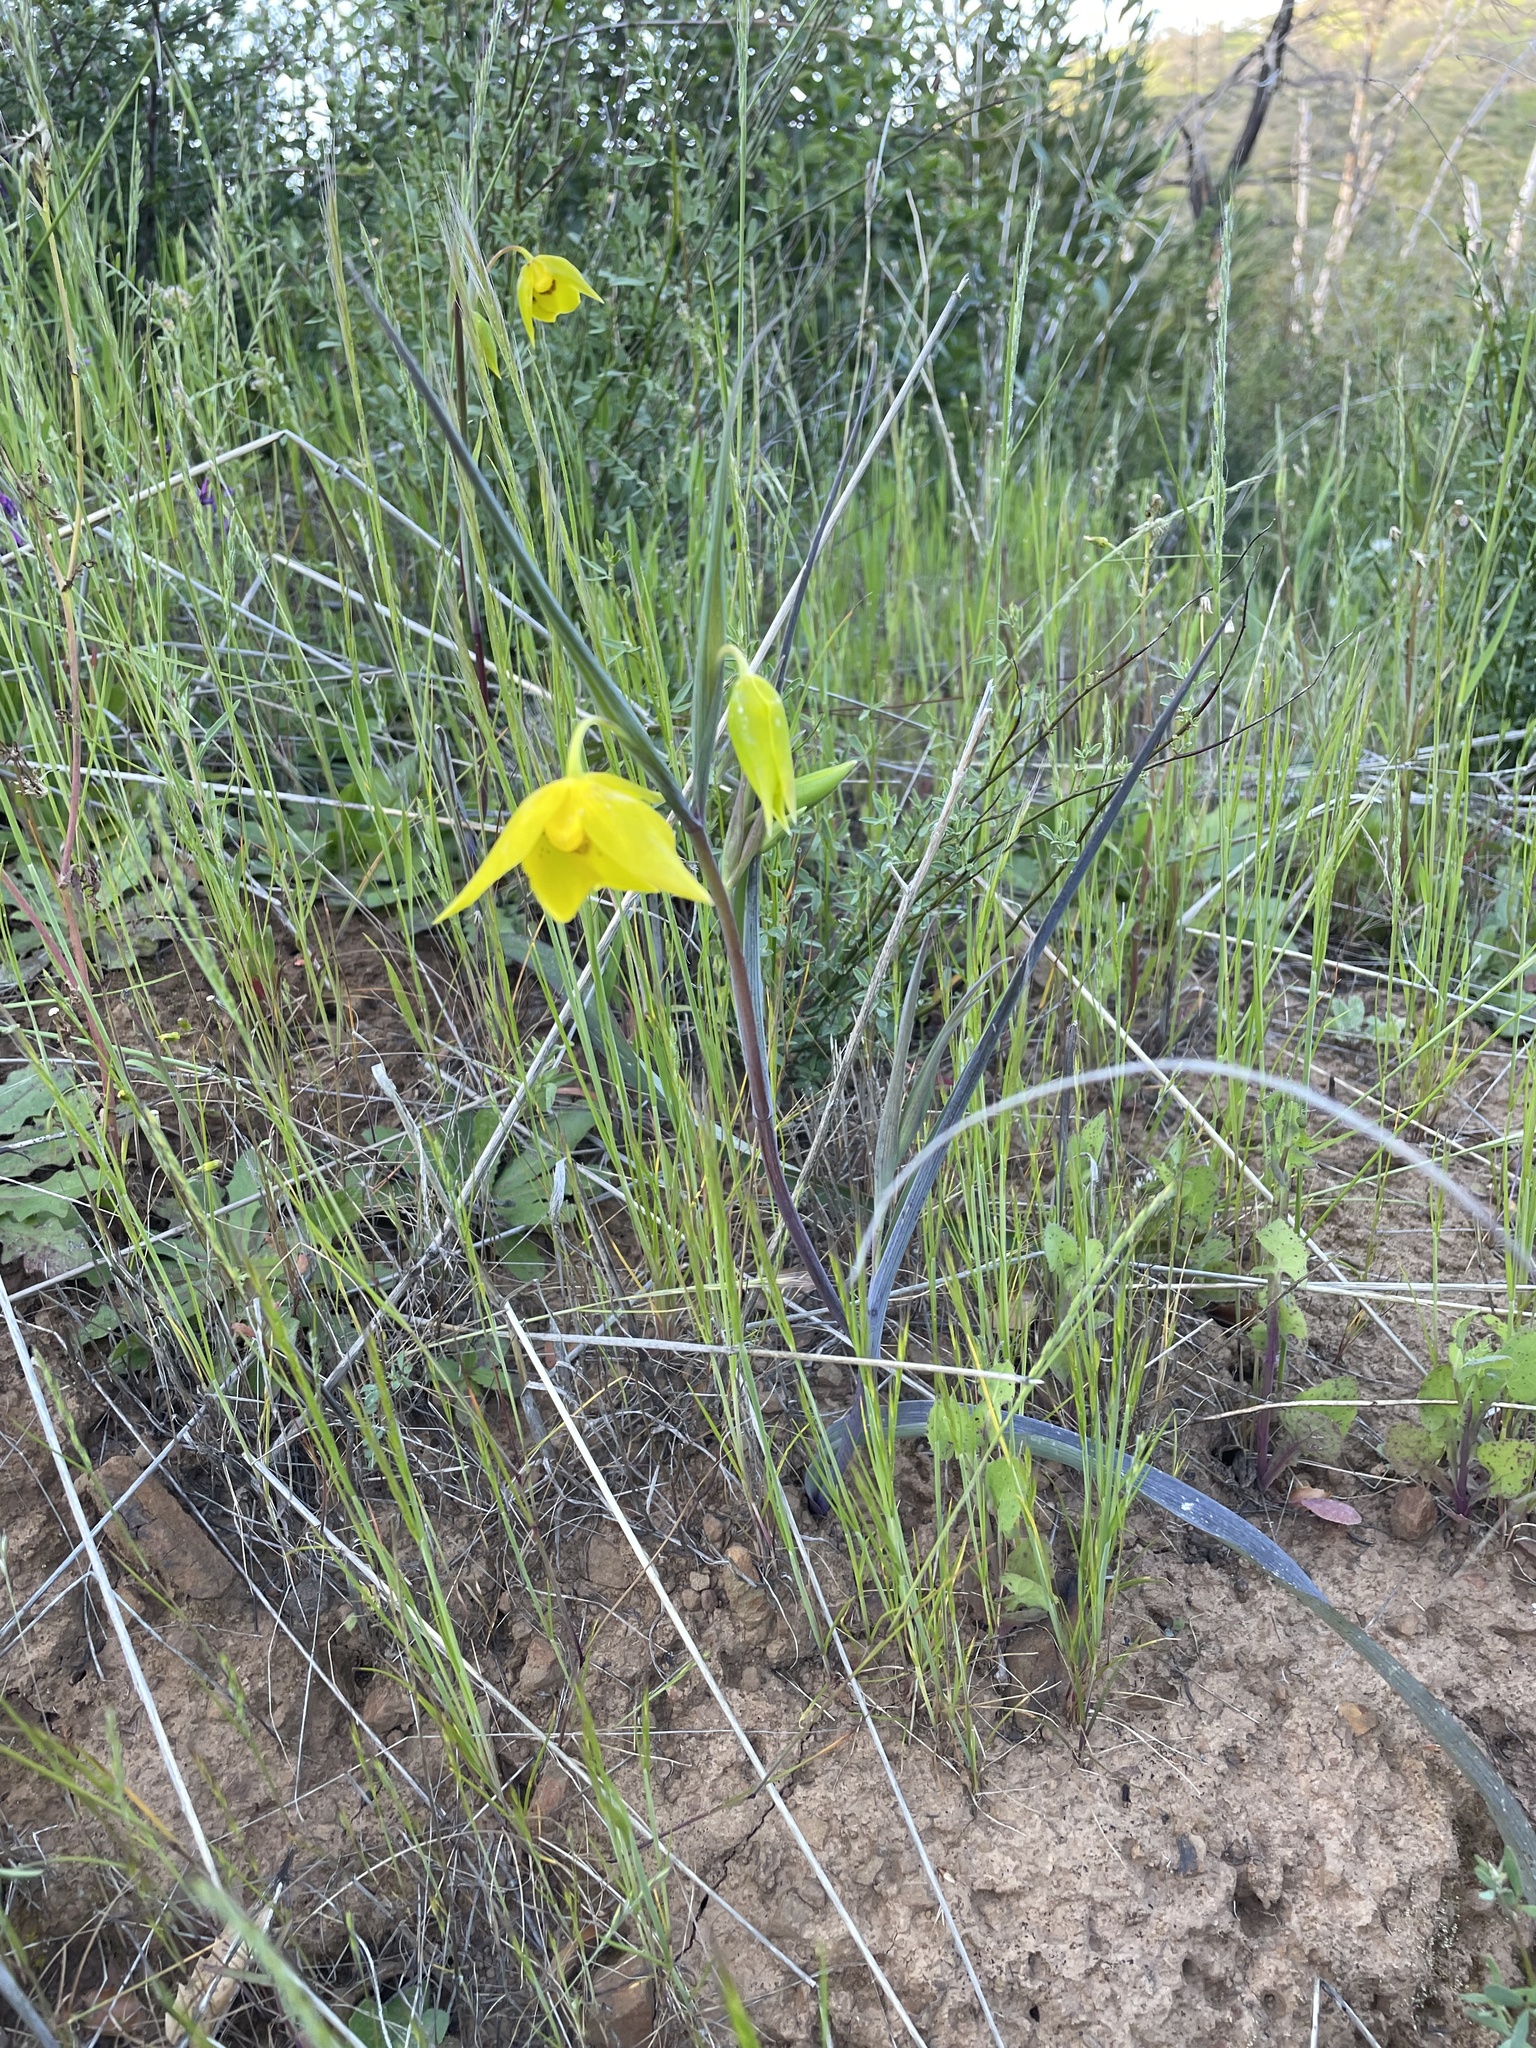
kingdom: Plantae
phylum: Tracheophyta
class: Liliopsida
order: Liliales
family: Liliaceae
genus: Calochortus
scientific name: Calochortus amabilis
